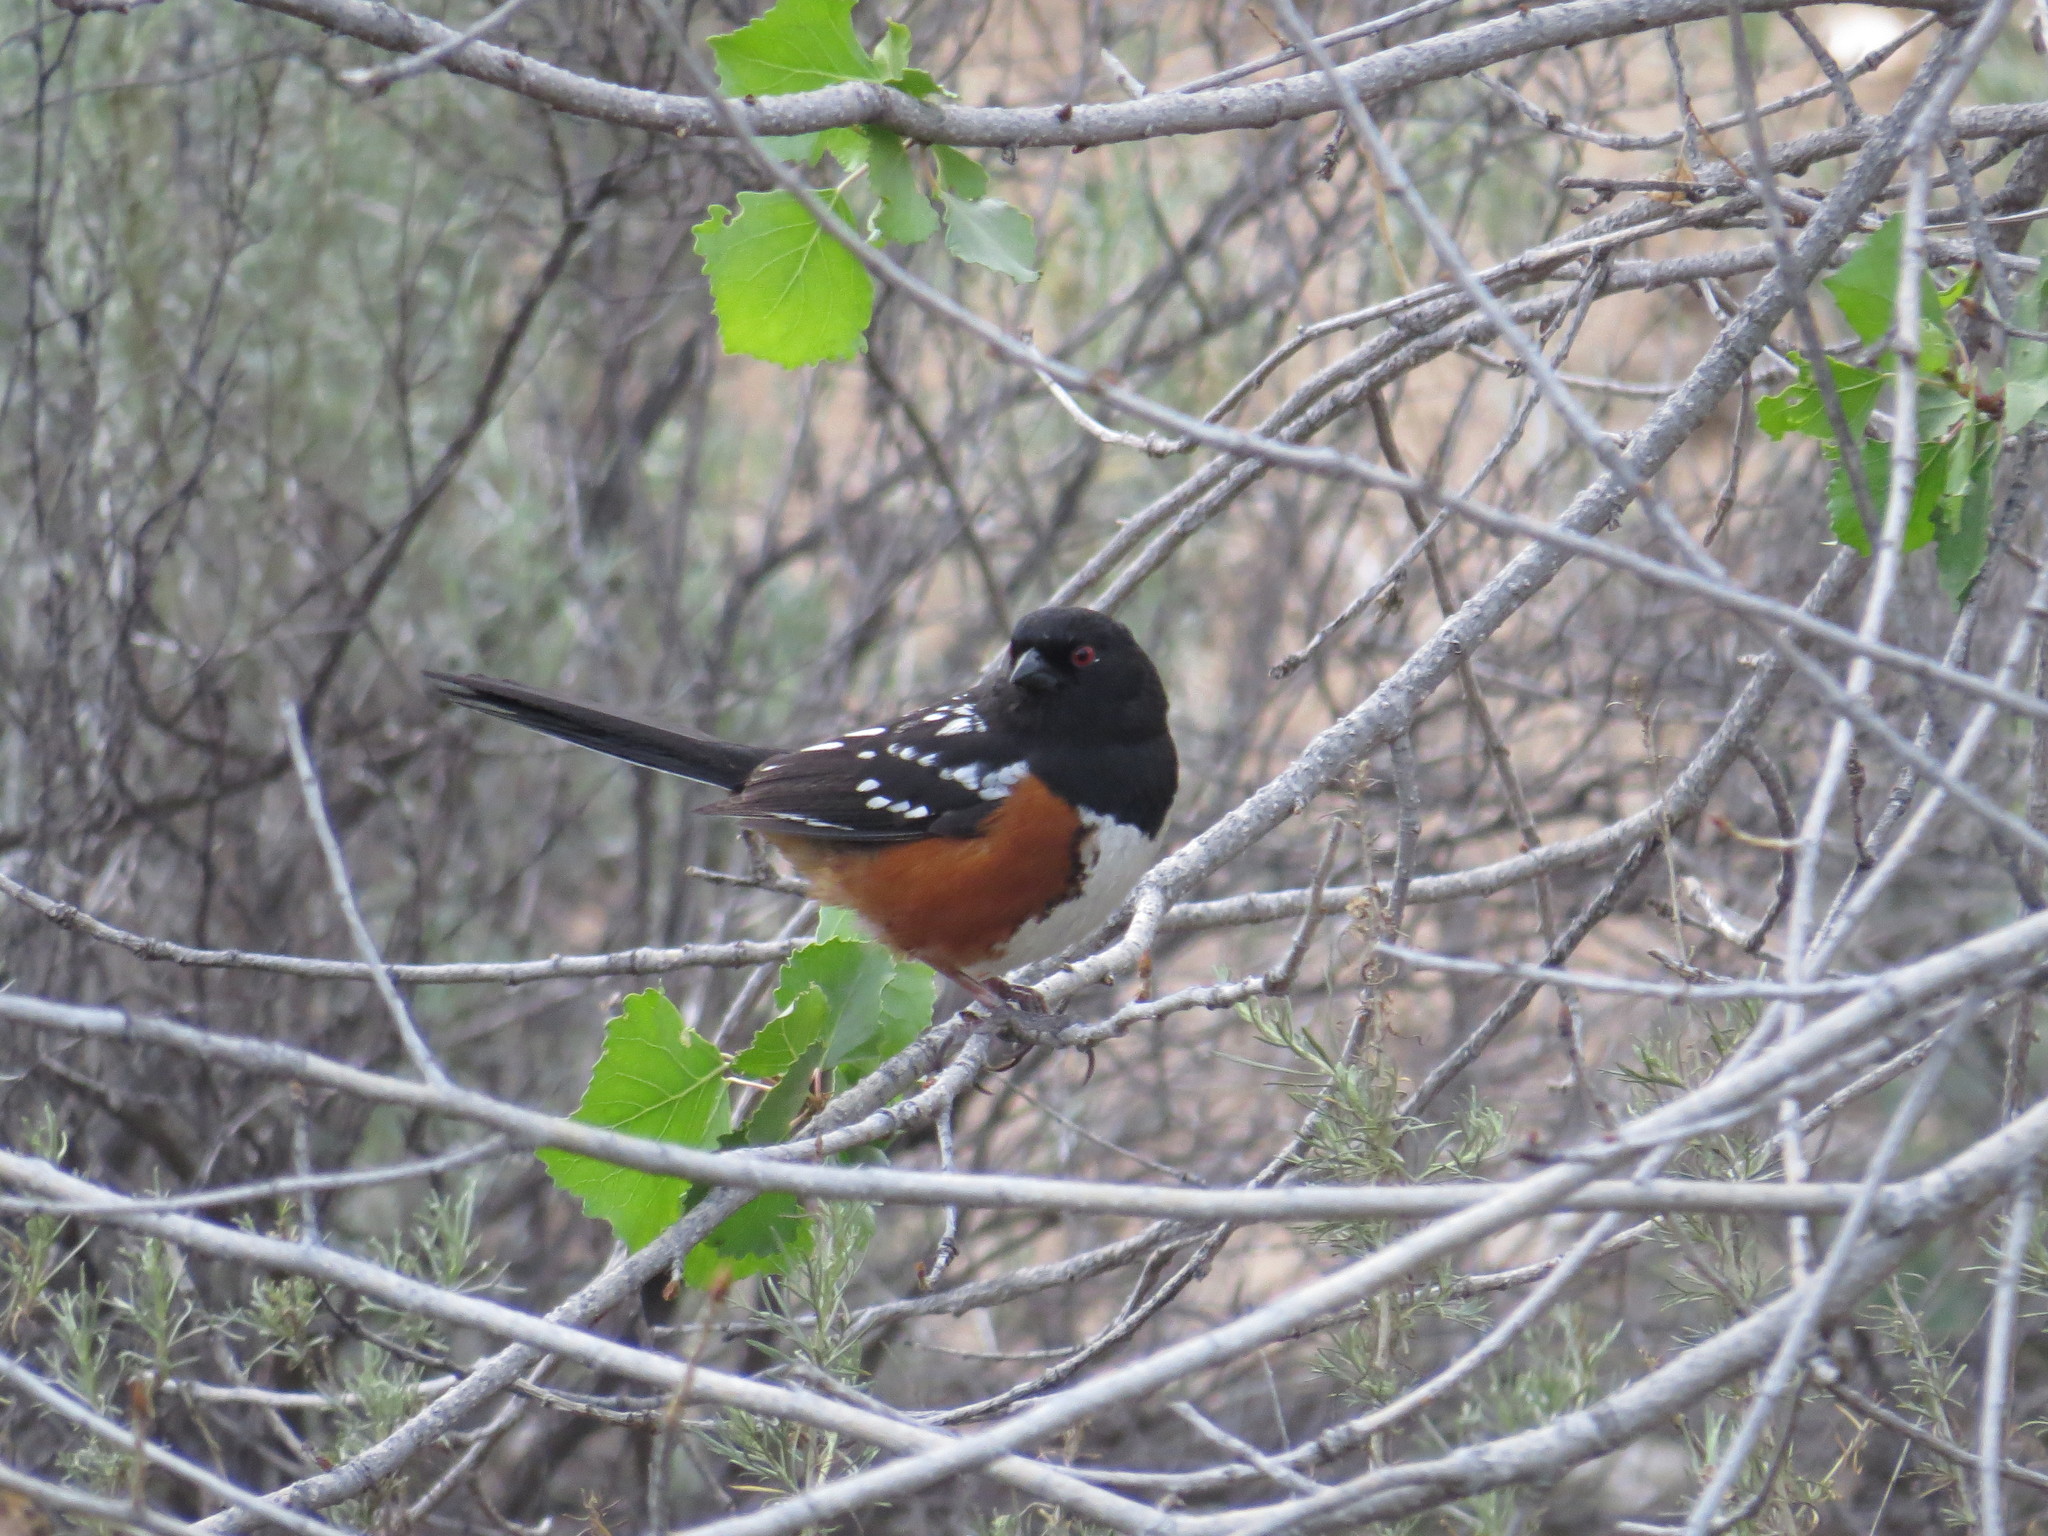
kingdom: Animalia
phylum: Chordata
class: Aves
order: Passeriformes
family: Passerellidae
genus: Pipilo
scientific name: Pipilo maculatus
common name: Spotted towhee
